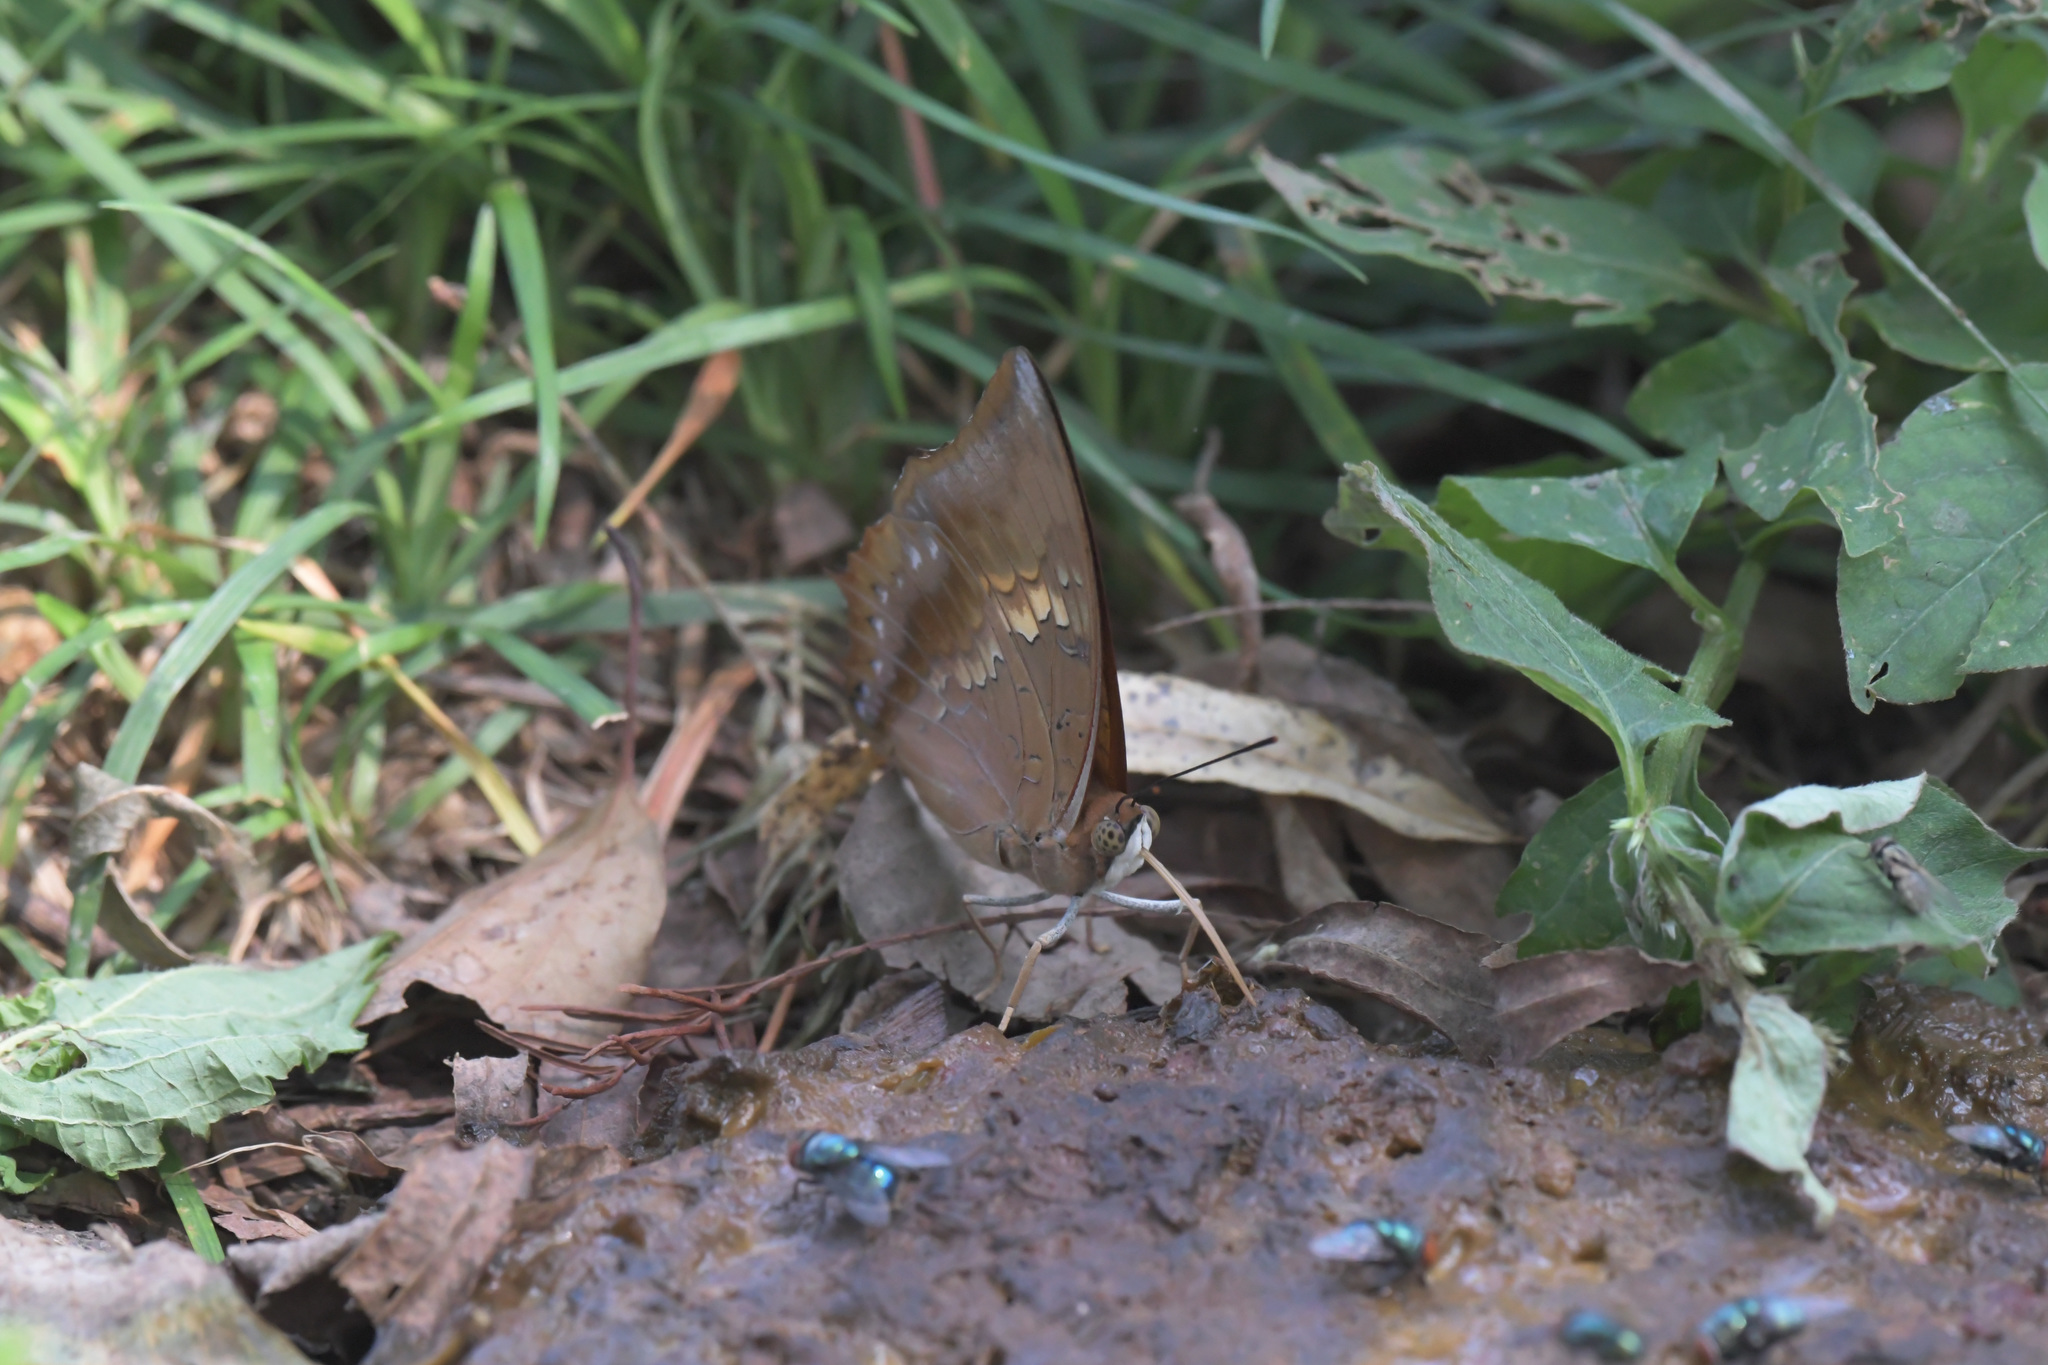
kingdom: Animalia
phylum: Arthropoda
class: Insecta
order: Lepidoptera
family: Nymphalidae
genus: Charaxes
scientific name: Charaxes bernardus
